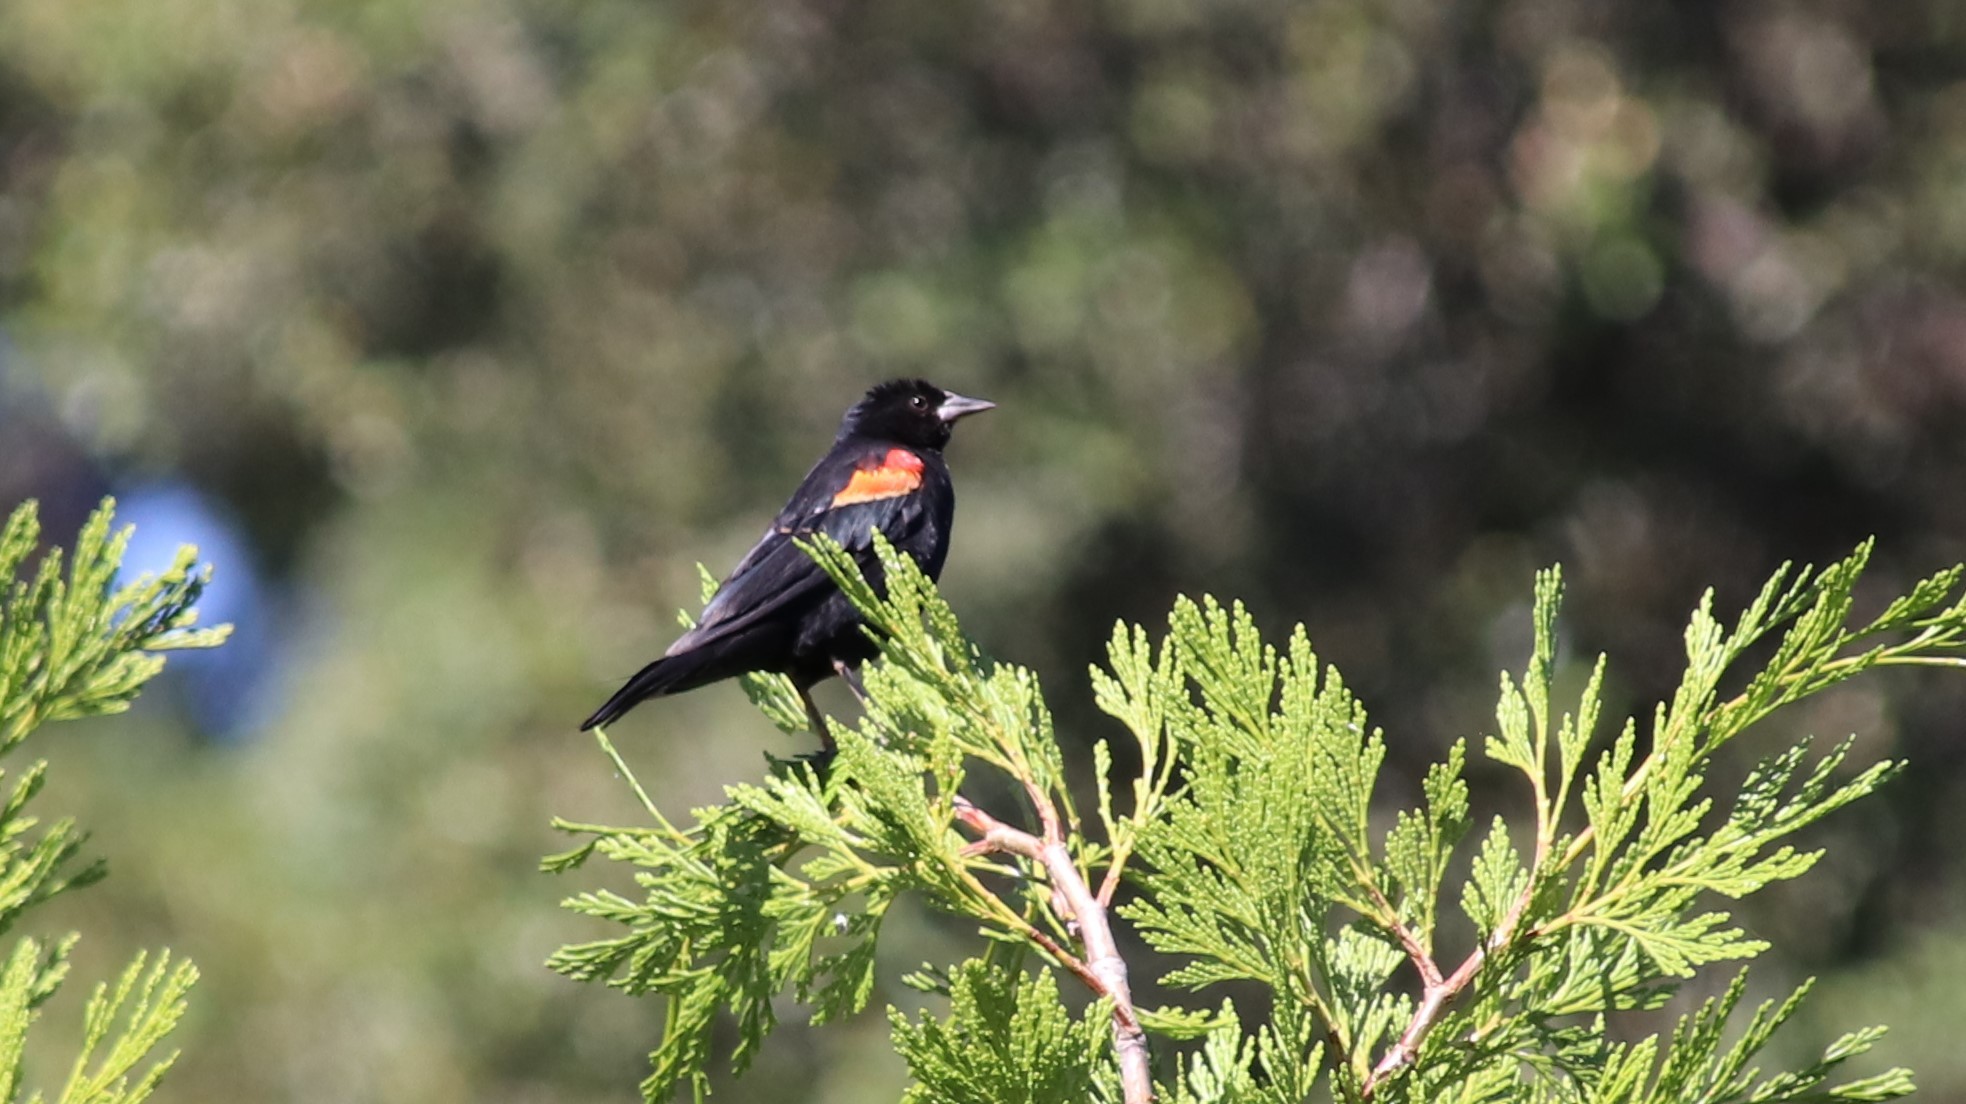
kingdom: Animalia
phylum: Chordata
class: Aves
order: Passeriformes
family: Icteridae
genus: Agelaius
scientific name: Agelaius phoeniceus
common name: Red-winged blackbird
